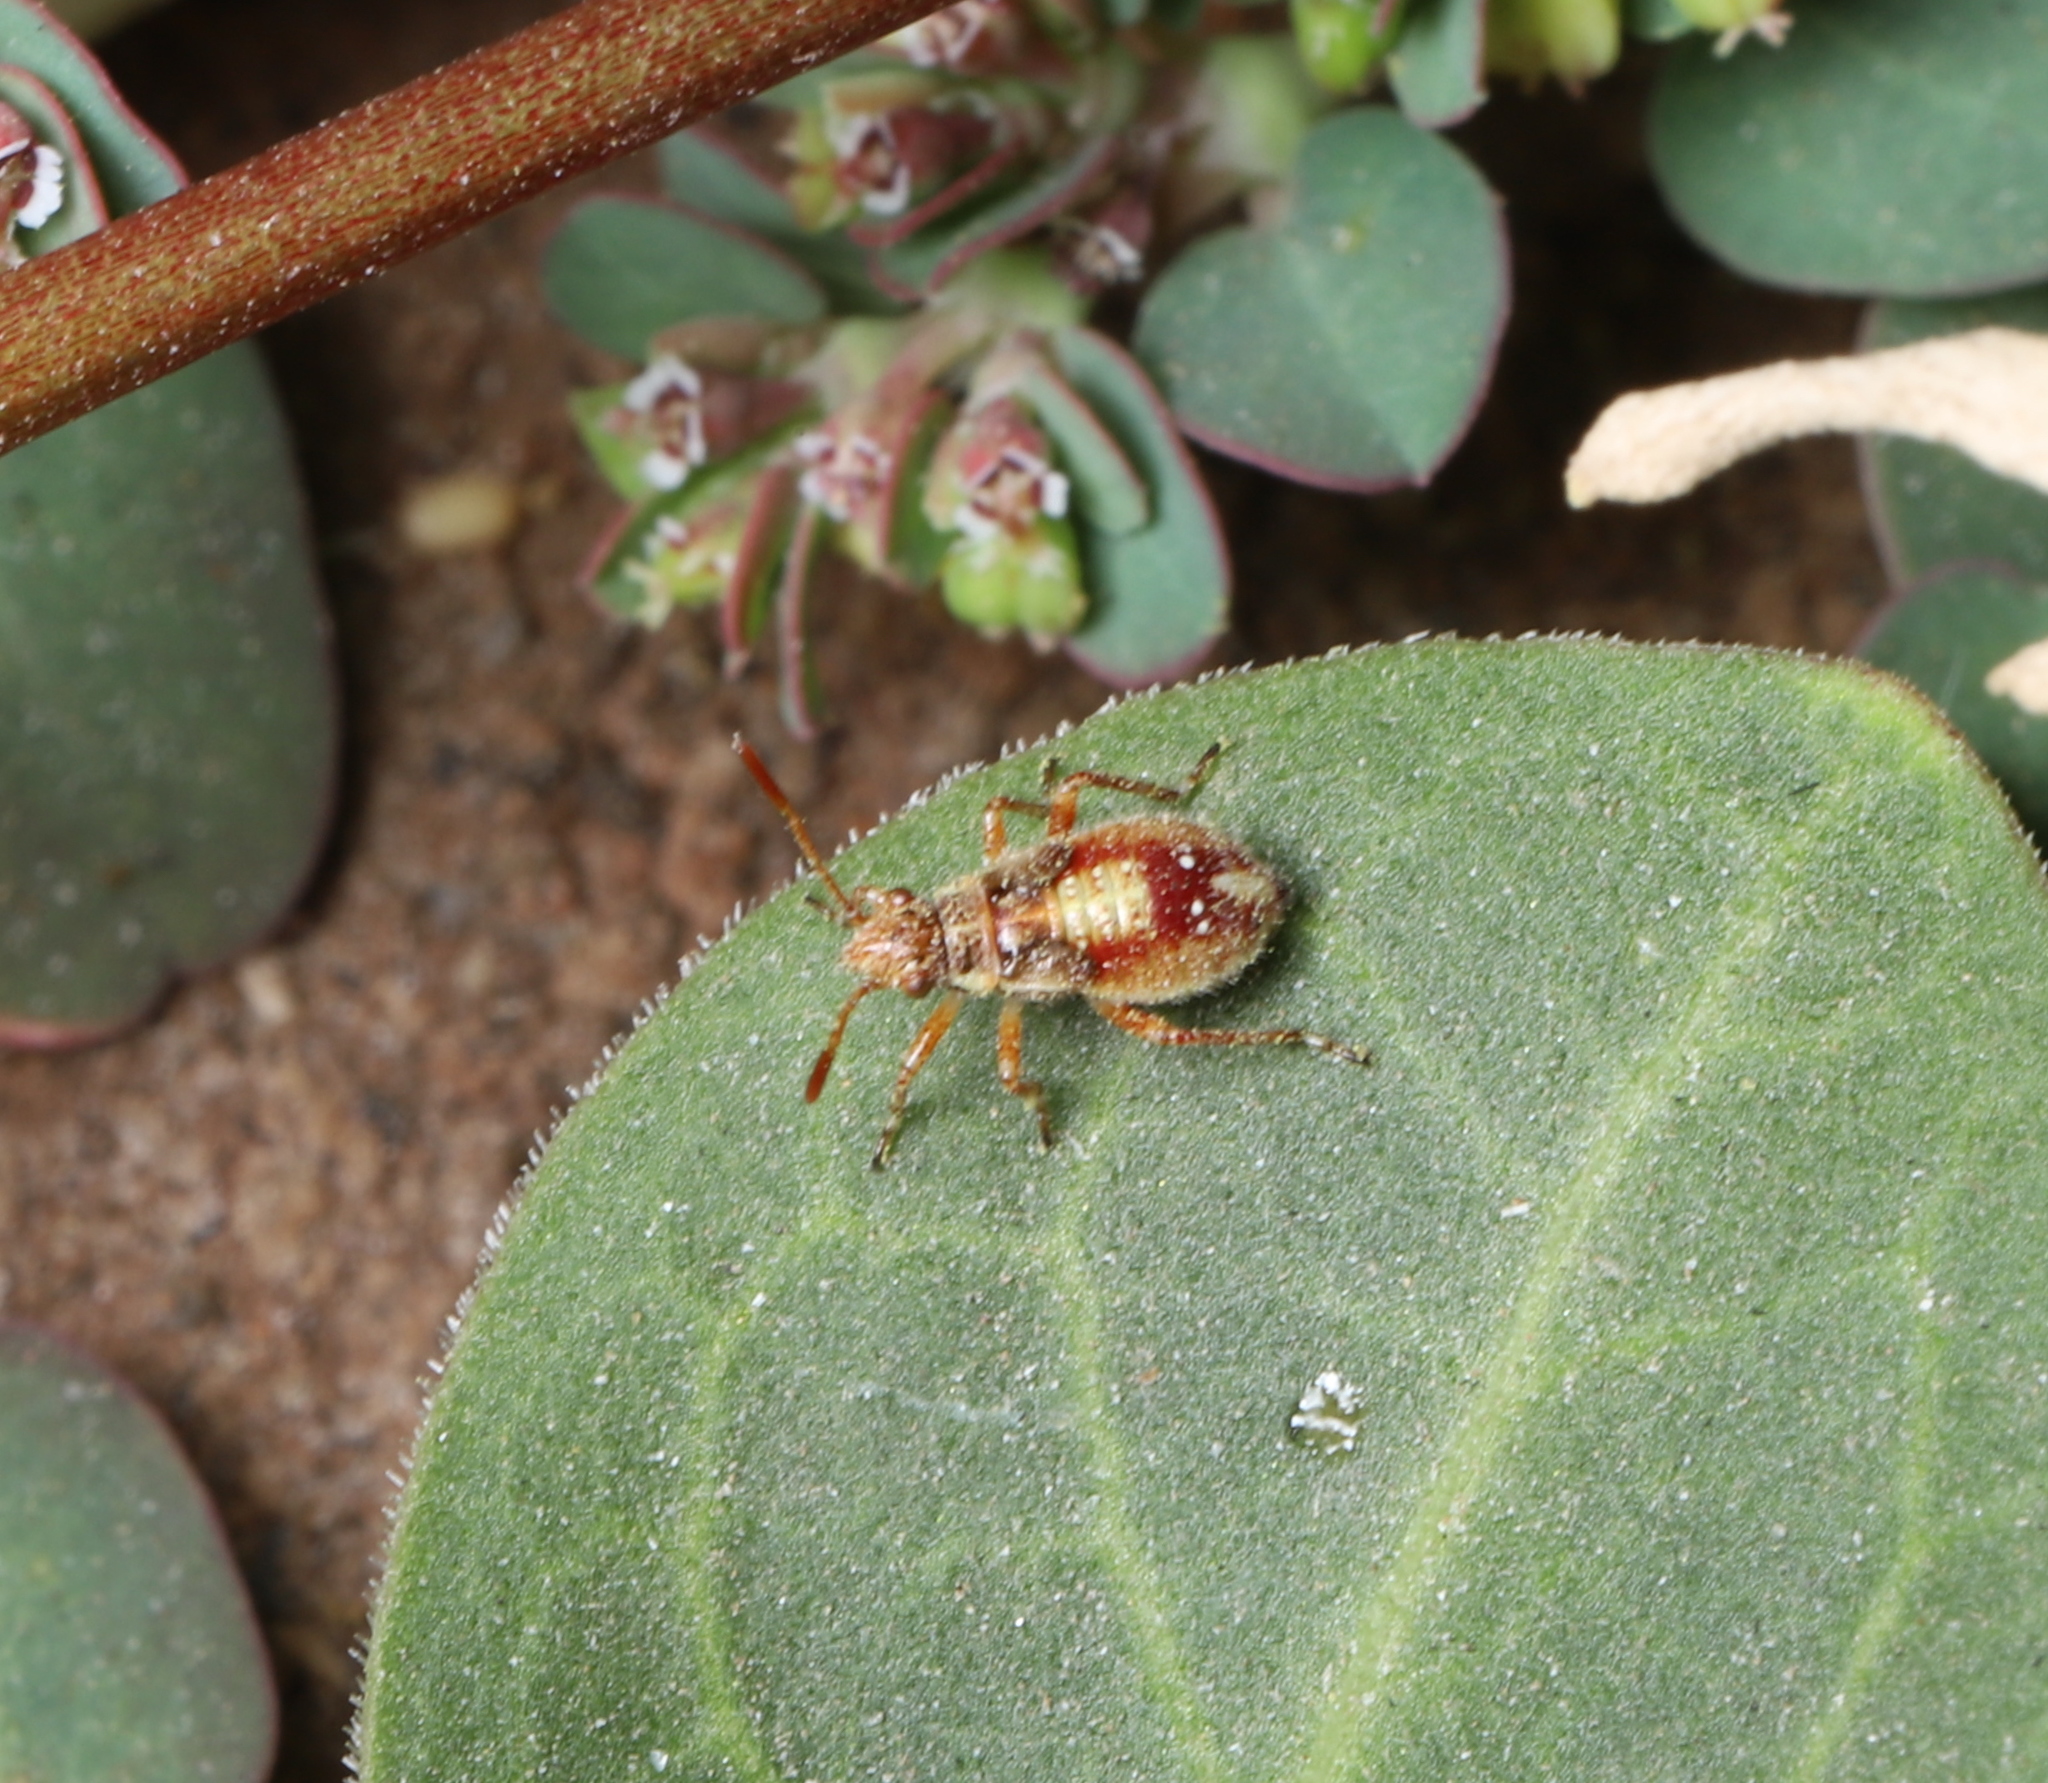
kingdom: Animalia
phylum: Arthropoda
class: Insecta
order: Hemiptera
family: Rhopalidae
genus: Arhyssus
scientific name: Arhyssus
